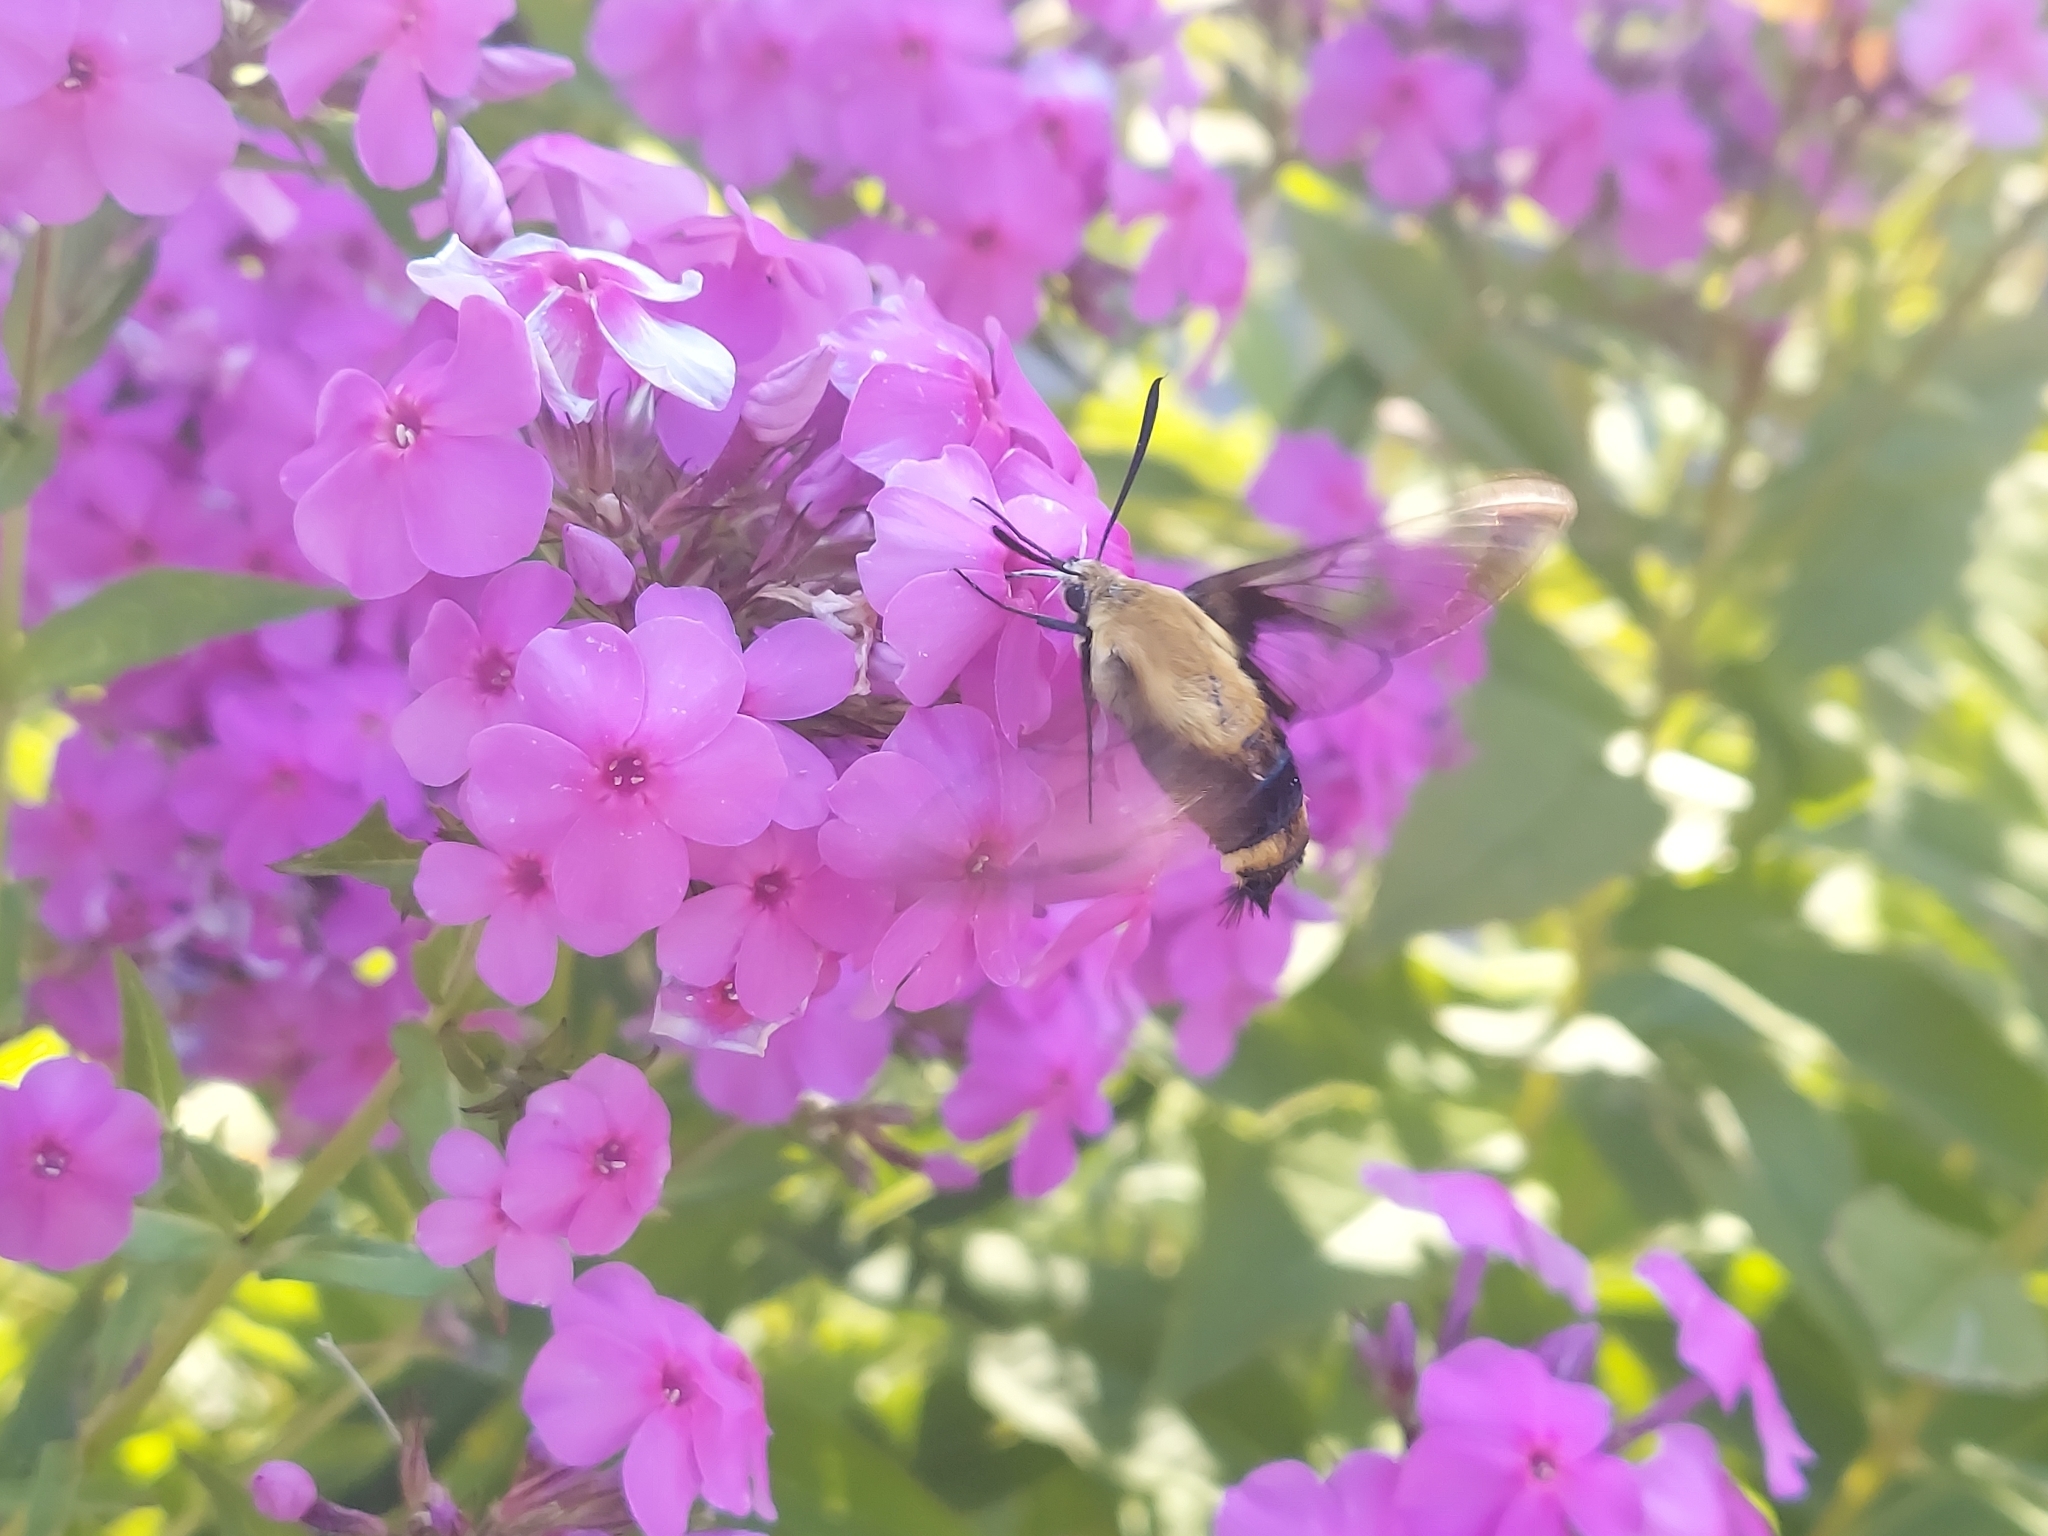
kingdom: Animalia
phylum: Arthropoda
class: Insecta
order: Lepidoptera
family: Sphingidae
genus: Hemaris
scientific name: Hemaris diffinis
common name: Bumblebee moth
